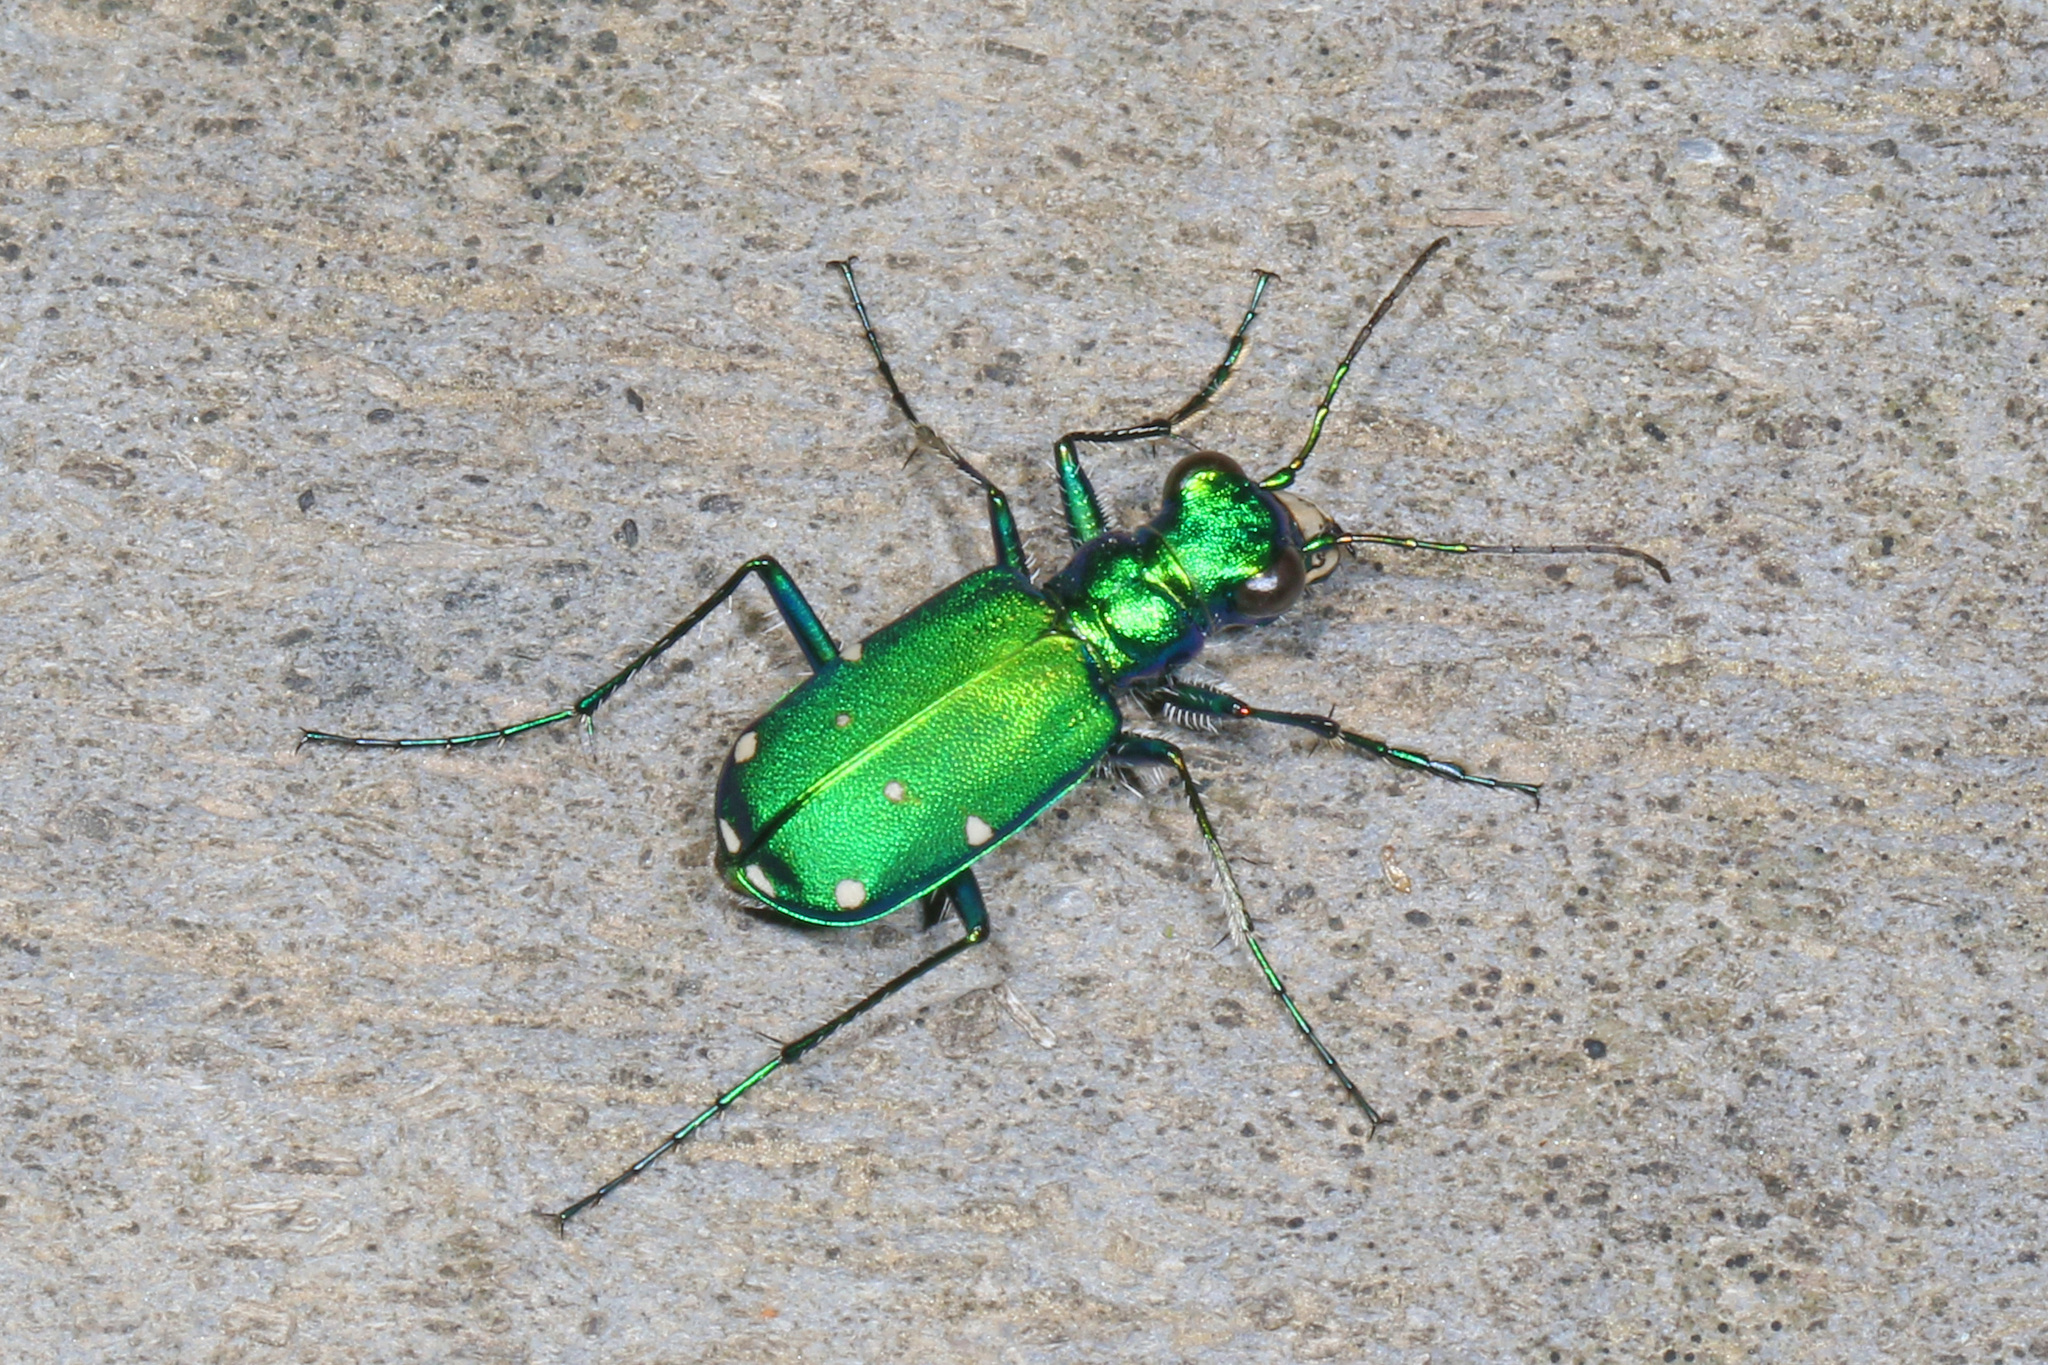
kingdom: Animalia
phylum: Arthropoda
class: Insecta
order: Coleoptera
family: Carabidae
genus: Cicindela
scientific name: Cicindela sexguttata
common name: Six-spotted tiger beetle
